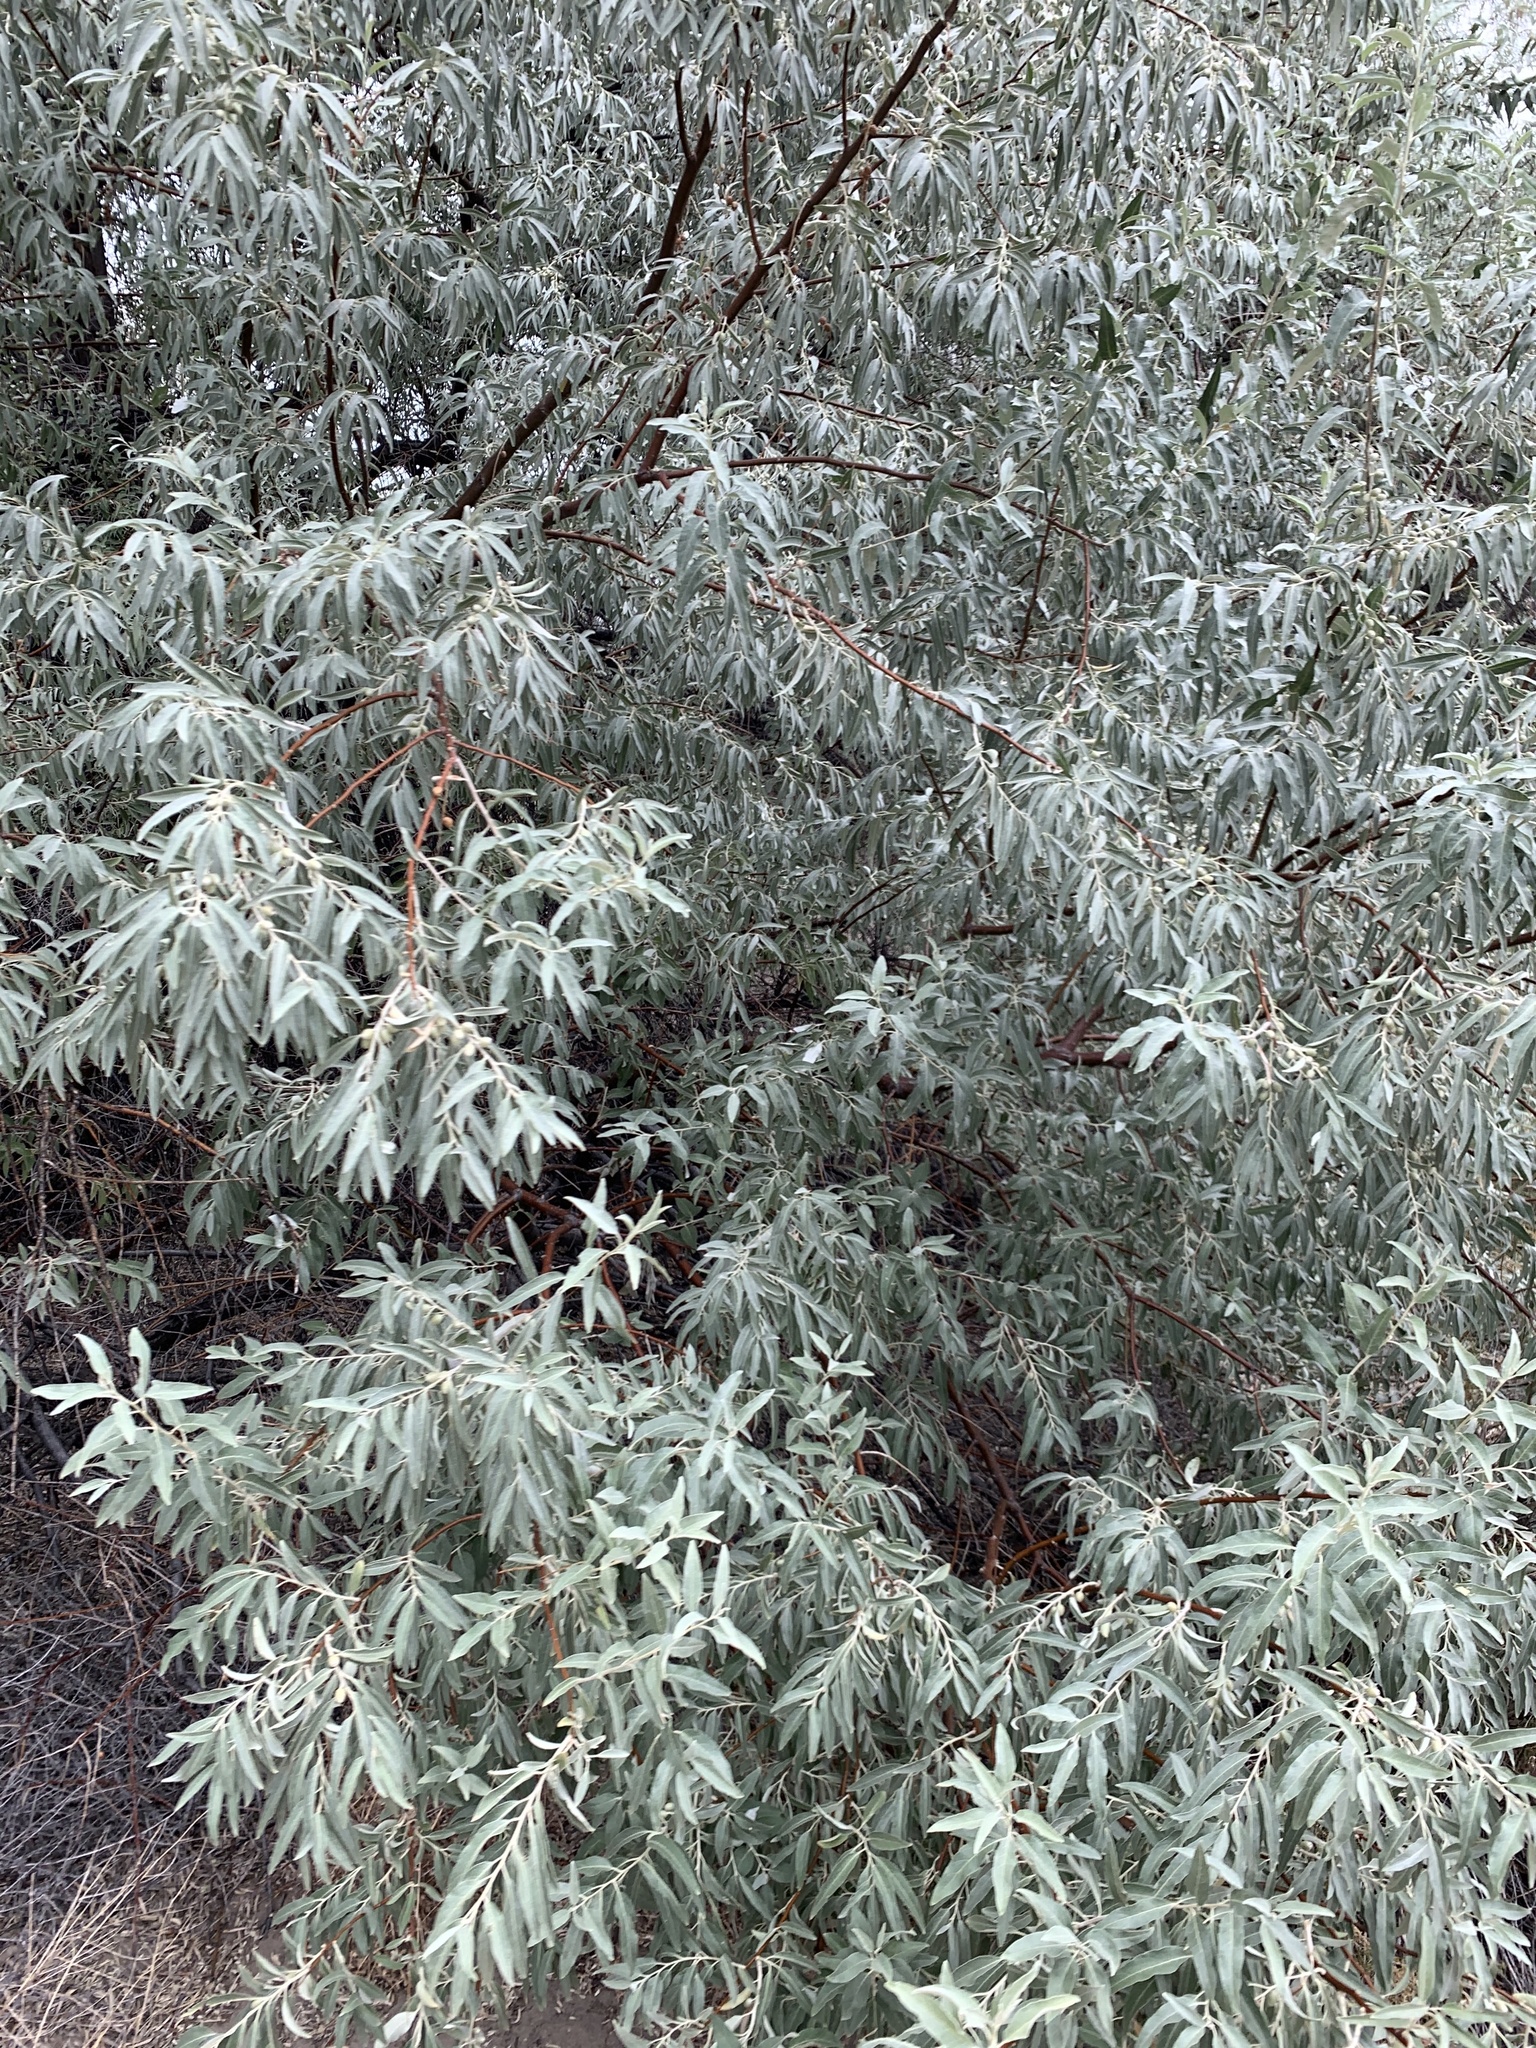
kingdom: Plantae
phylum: Tracheophyta
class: Magnoliopsida
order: Rosales
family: Elaeagnaceae
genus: Elaeagnus
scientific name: Elaeagnus angustifolia
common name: Russian olive
